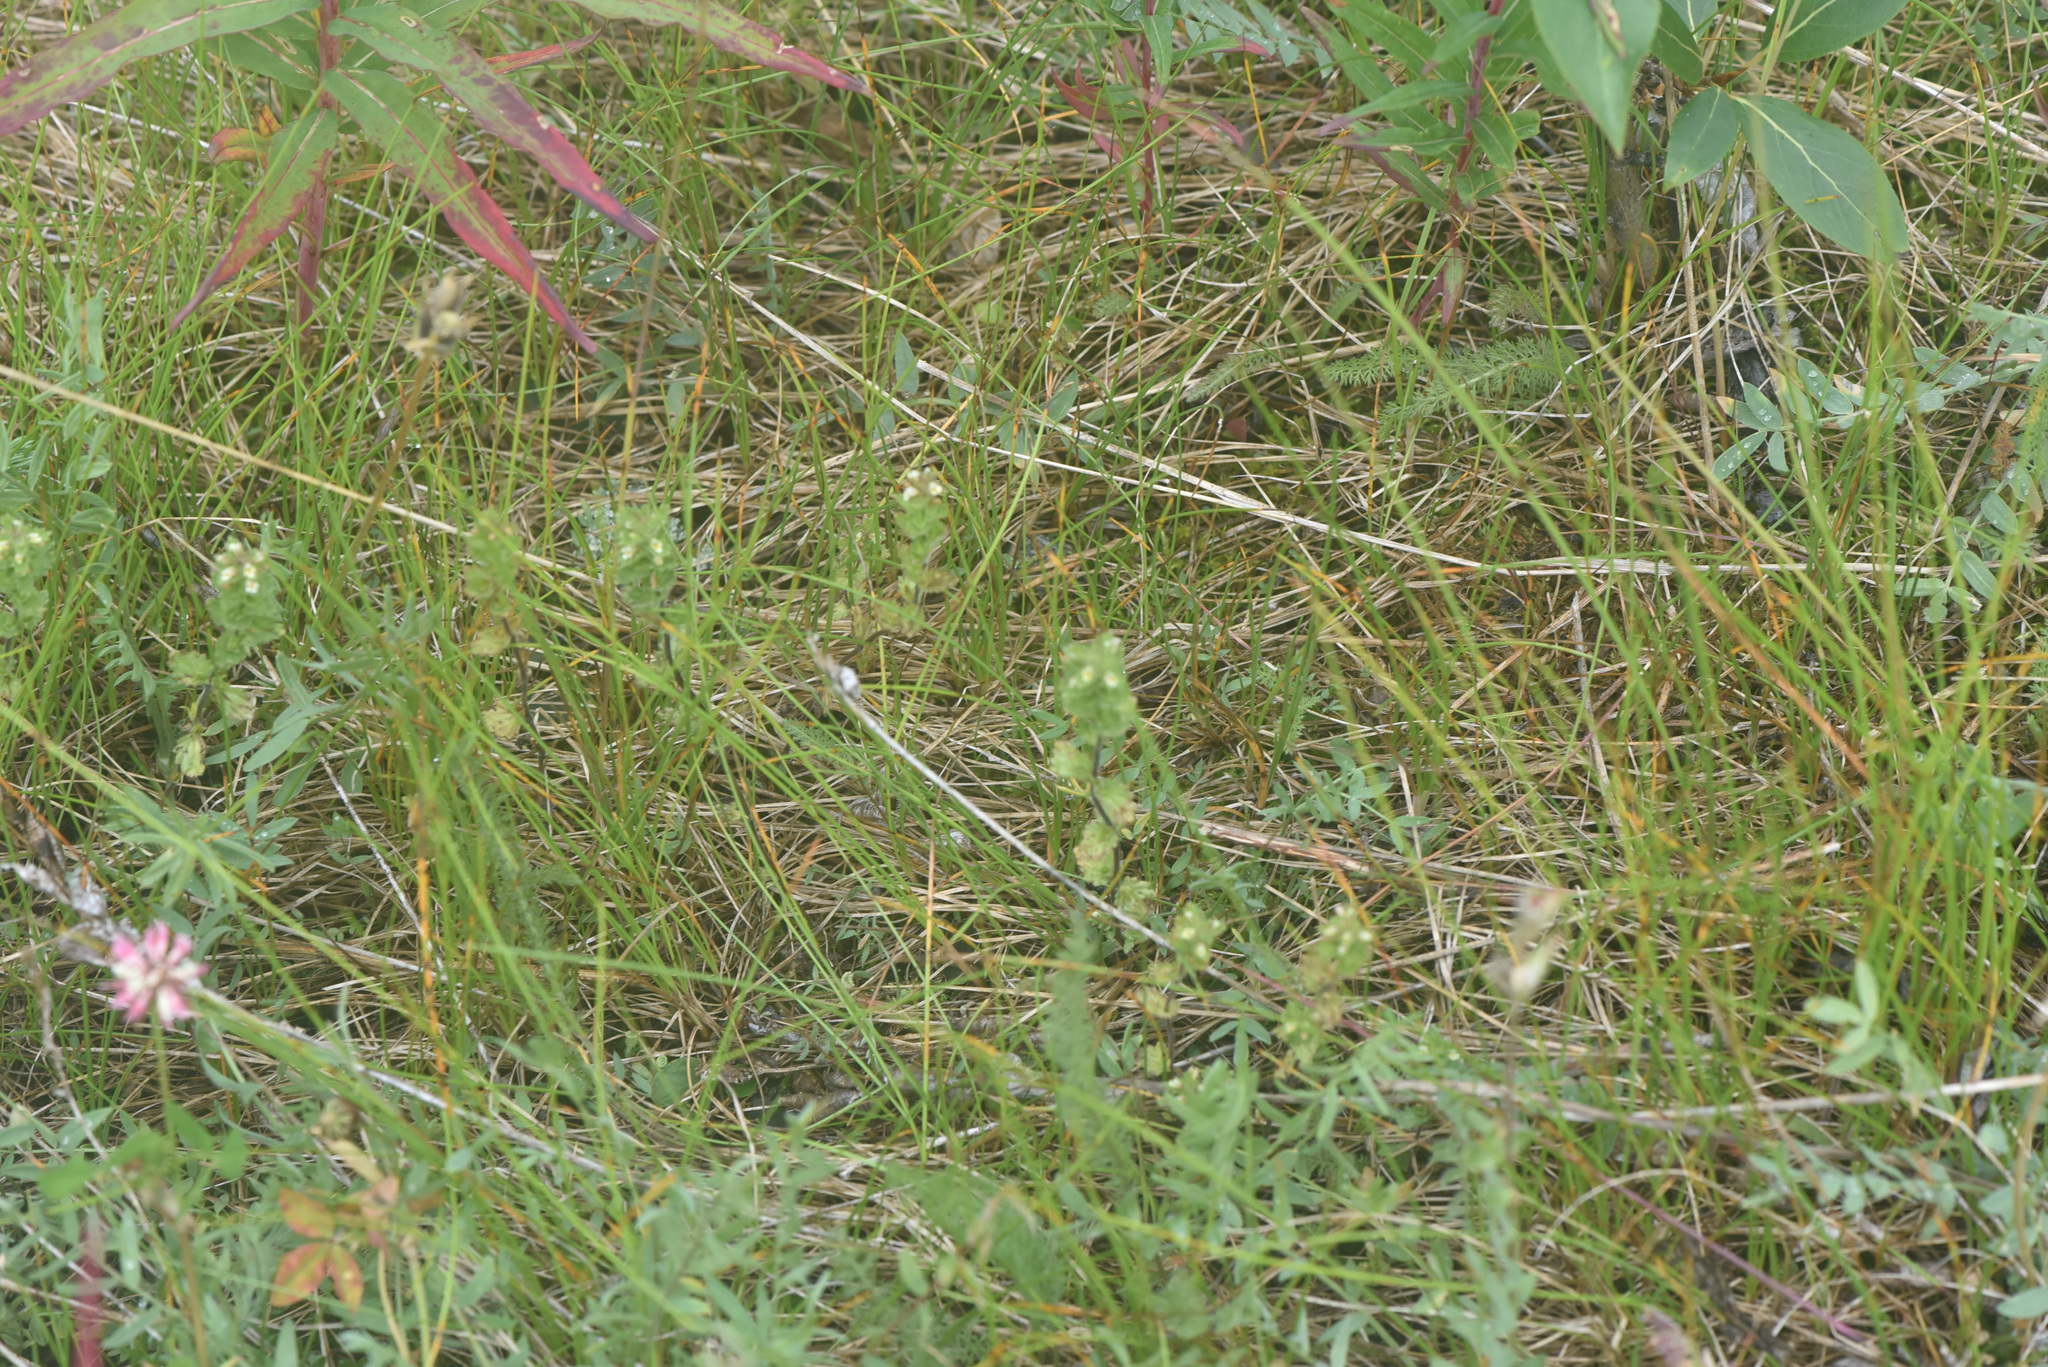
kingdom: Plantae
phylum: Tracheophyta
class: Magnoliopsida
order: Lamiales
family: Orobanchaceae
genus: Euphrasia
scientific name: Euphrasia subarctica
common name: Subarctic eyebright
